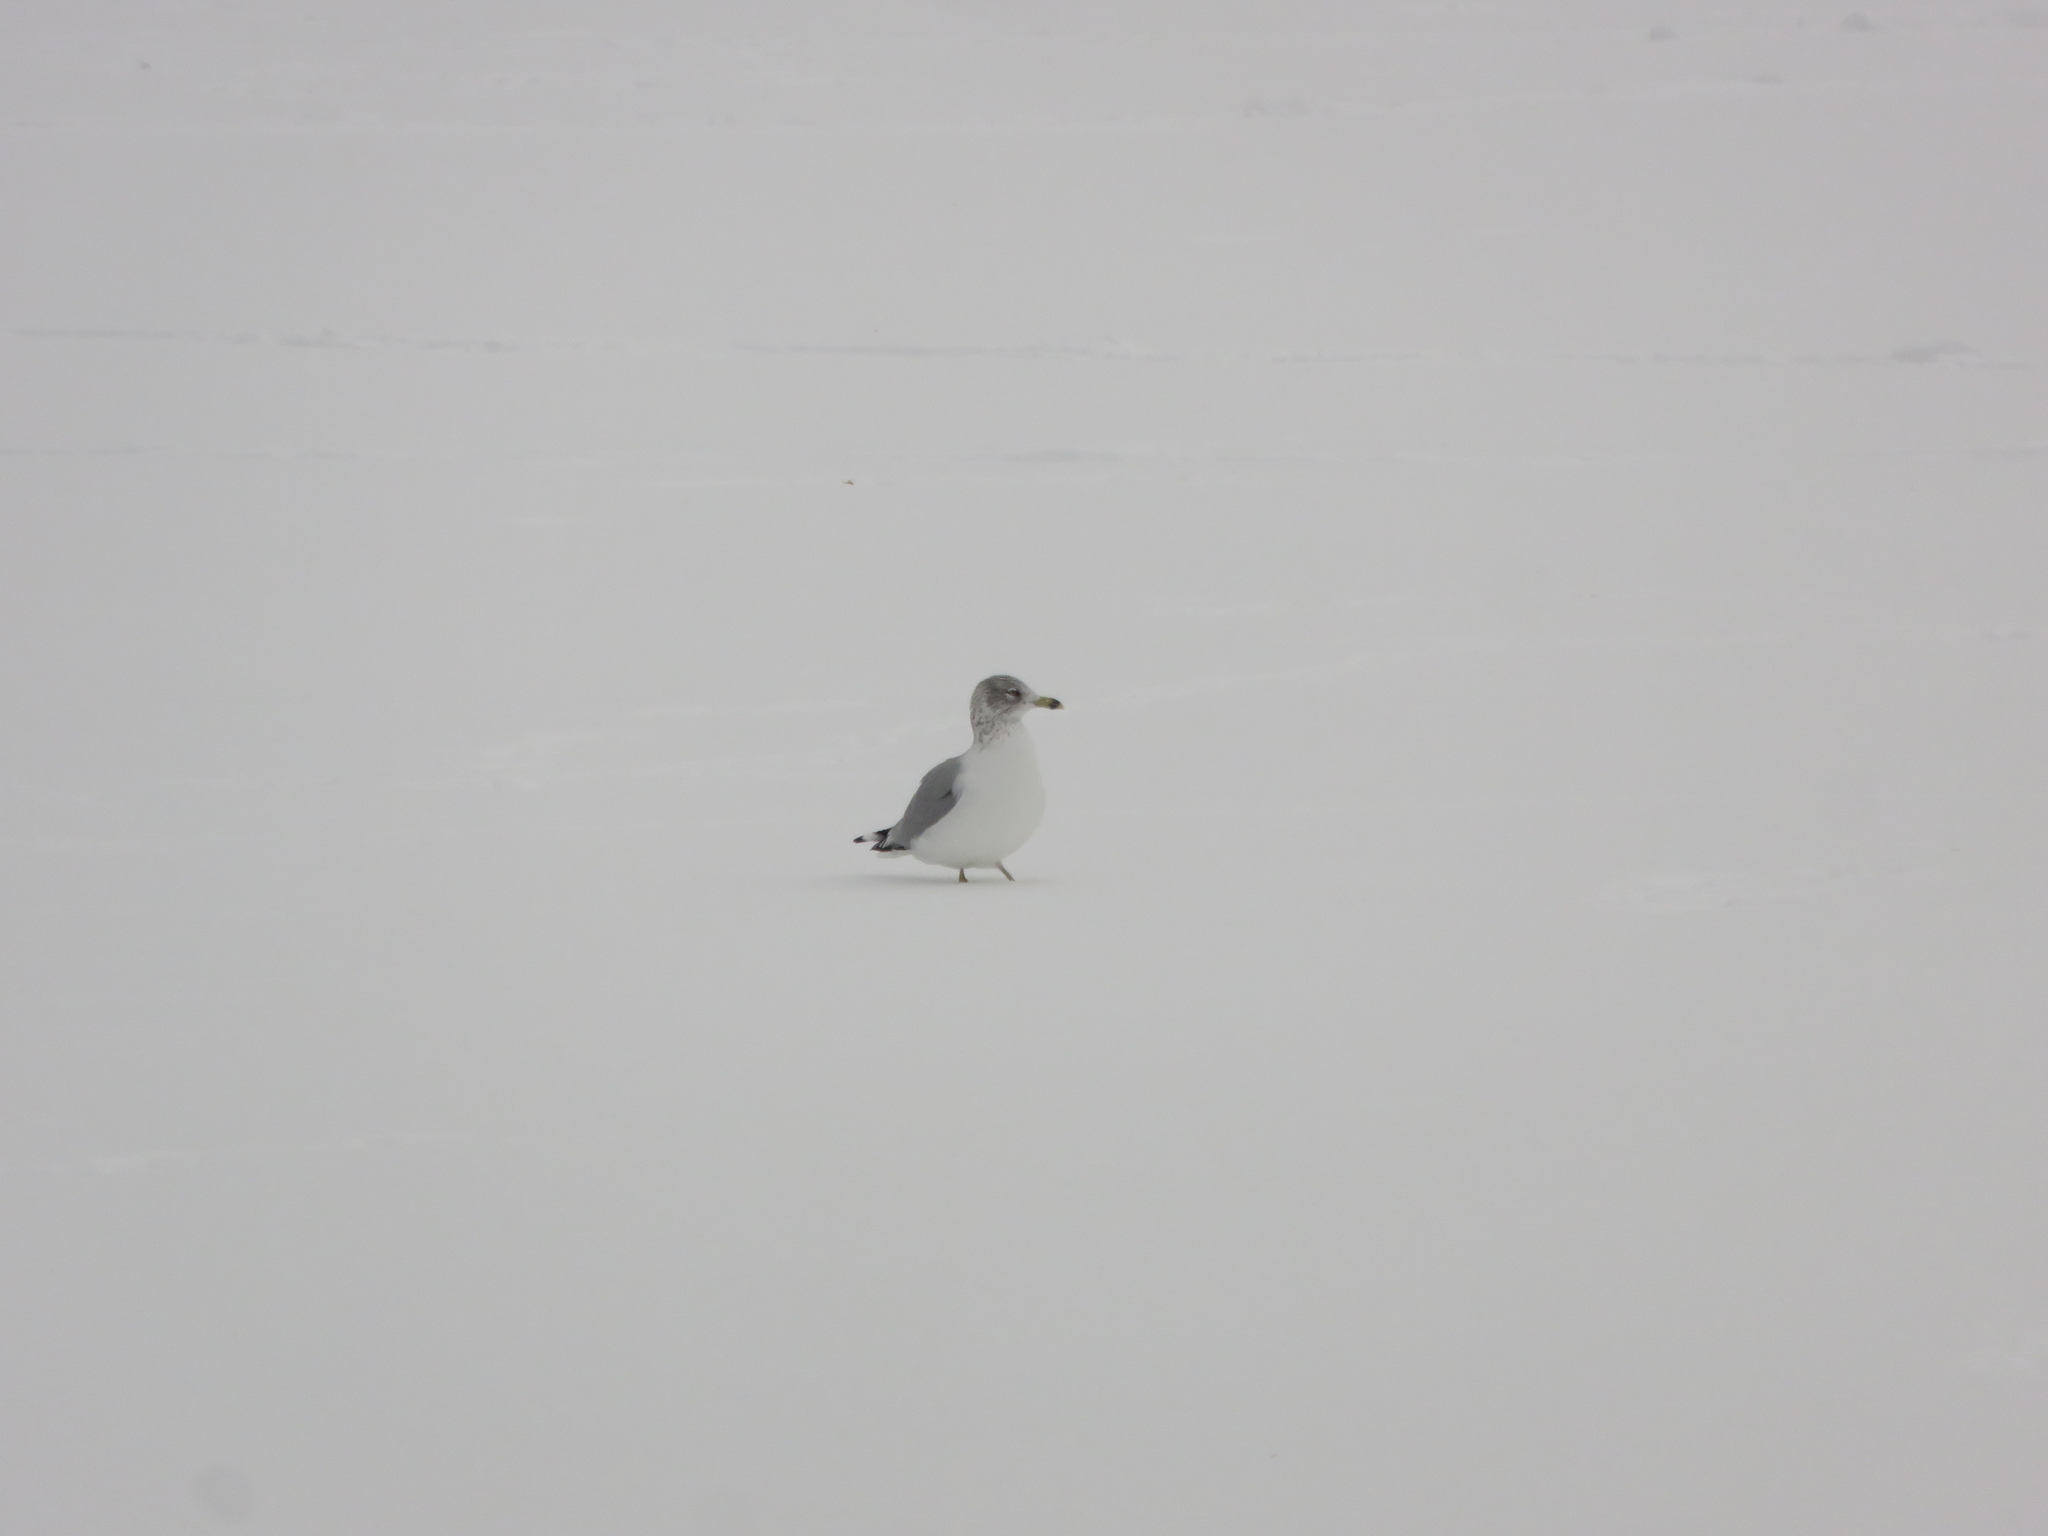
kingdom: Animalia
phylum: Chordata
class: Aves
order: Charadriiformes
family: Laridae
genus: Larus
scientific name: Larus delawarensis
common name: Ring-billed gull
